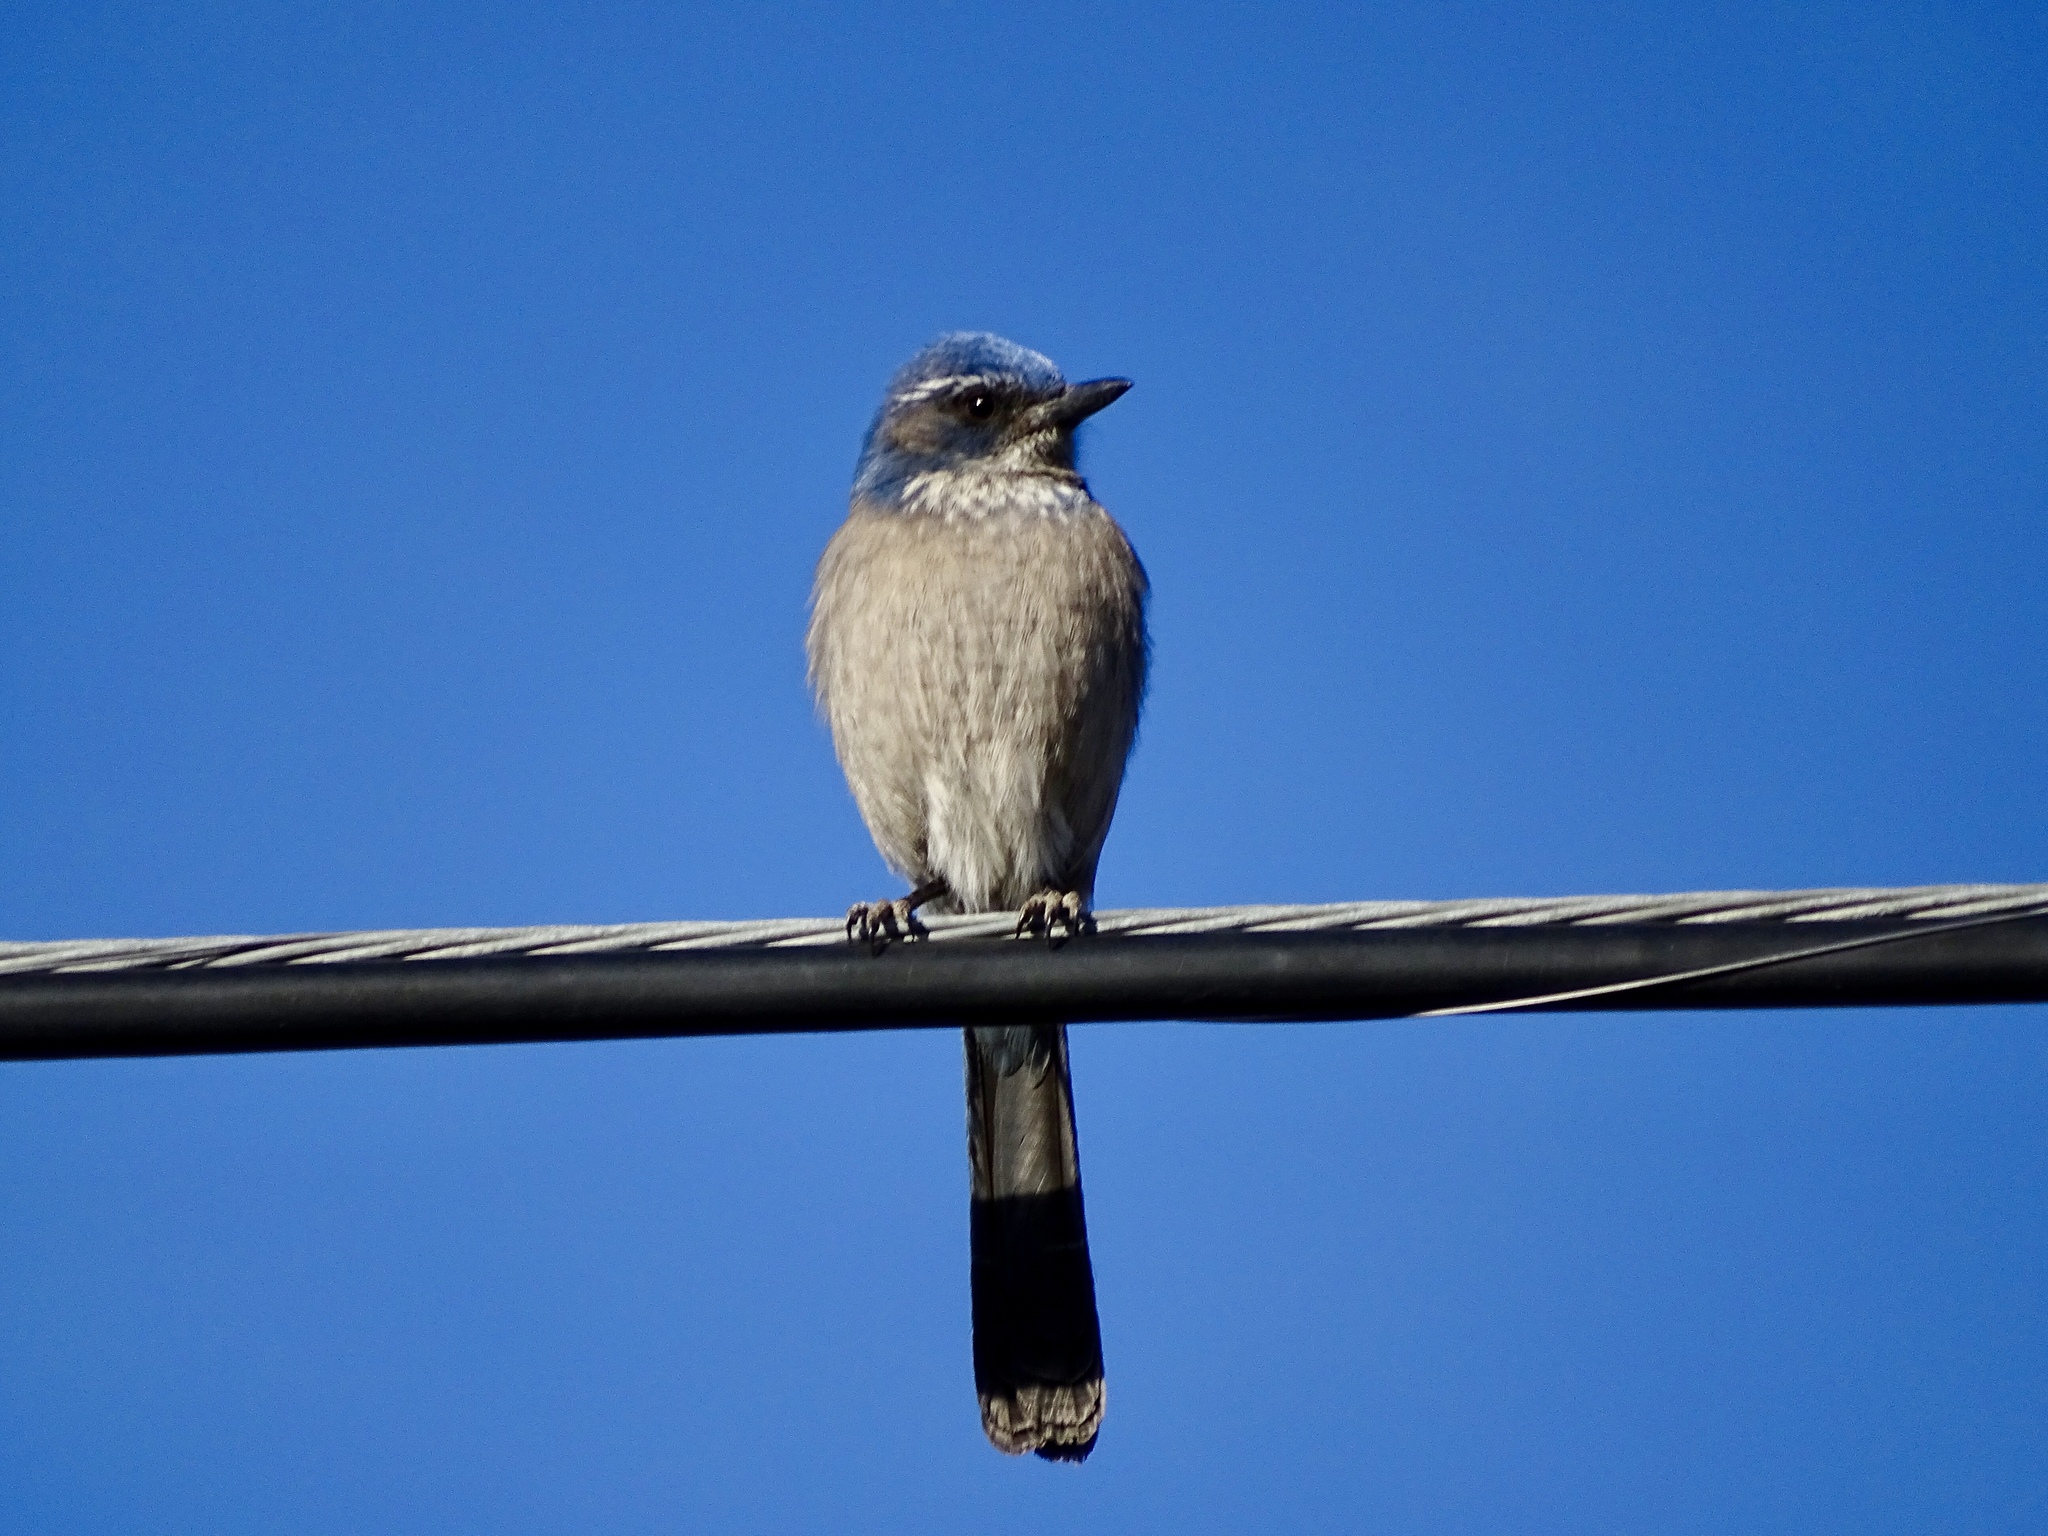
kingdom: Animalia
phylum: Chordata
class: Aves
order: Passeriformes
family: Corvidae
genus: Aphelocoma
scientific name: Aphelocoma woodhouseii
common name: Woodhouse's scrub-jay
